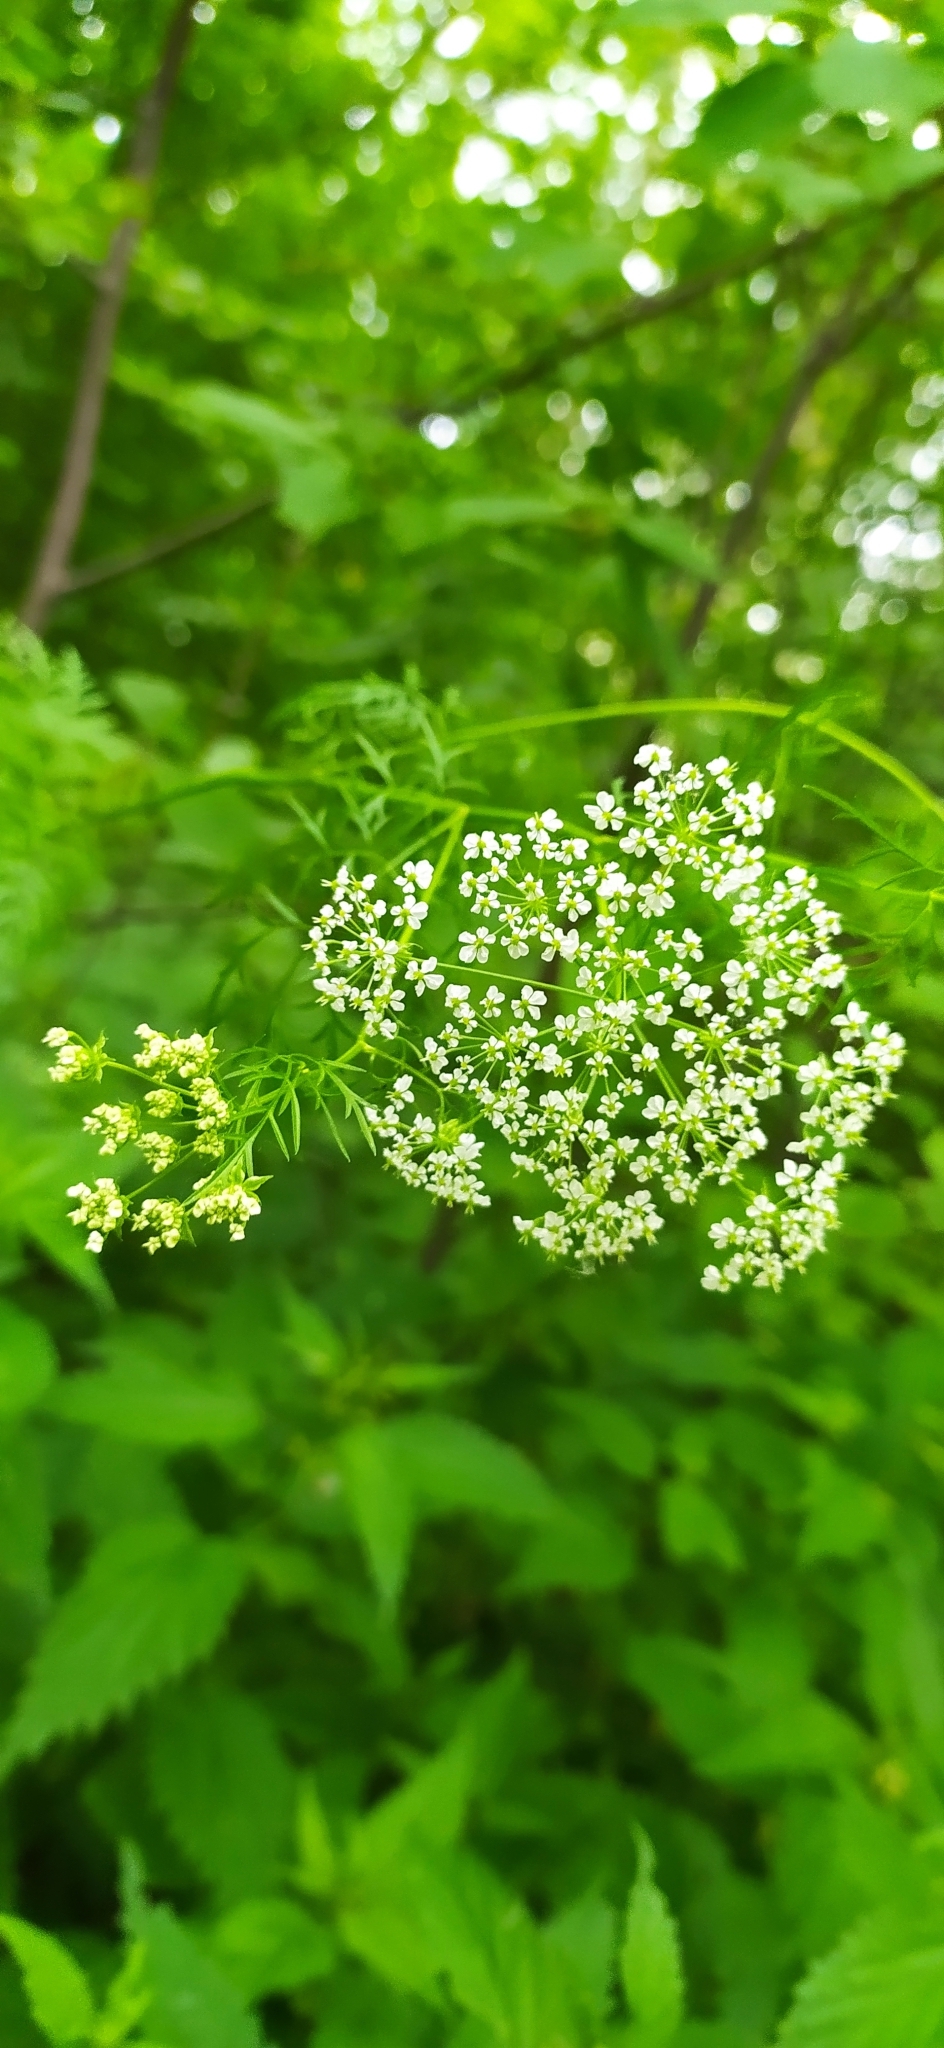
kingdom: Plantae
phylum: Tracheophyta
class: Magnoliopsida
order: Apiales
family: Apiaceae
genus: Chaerophyllum
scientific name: Chaerophyllum prescottii
